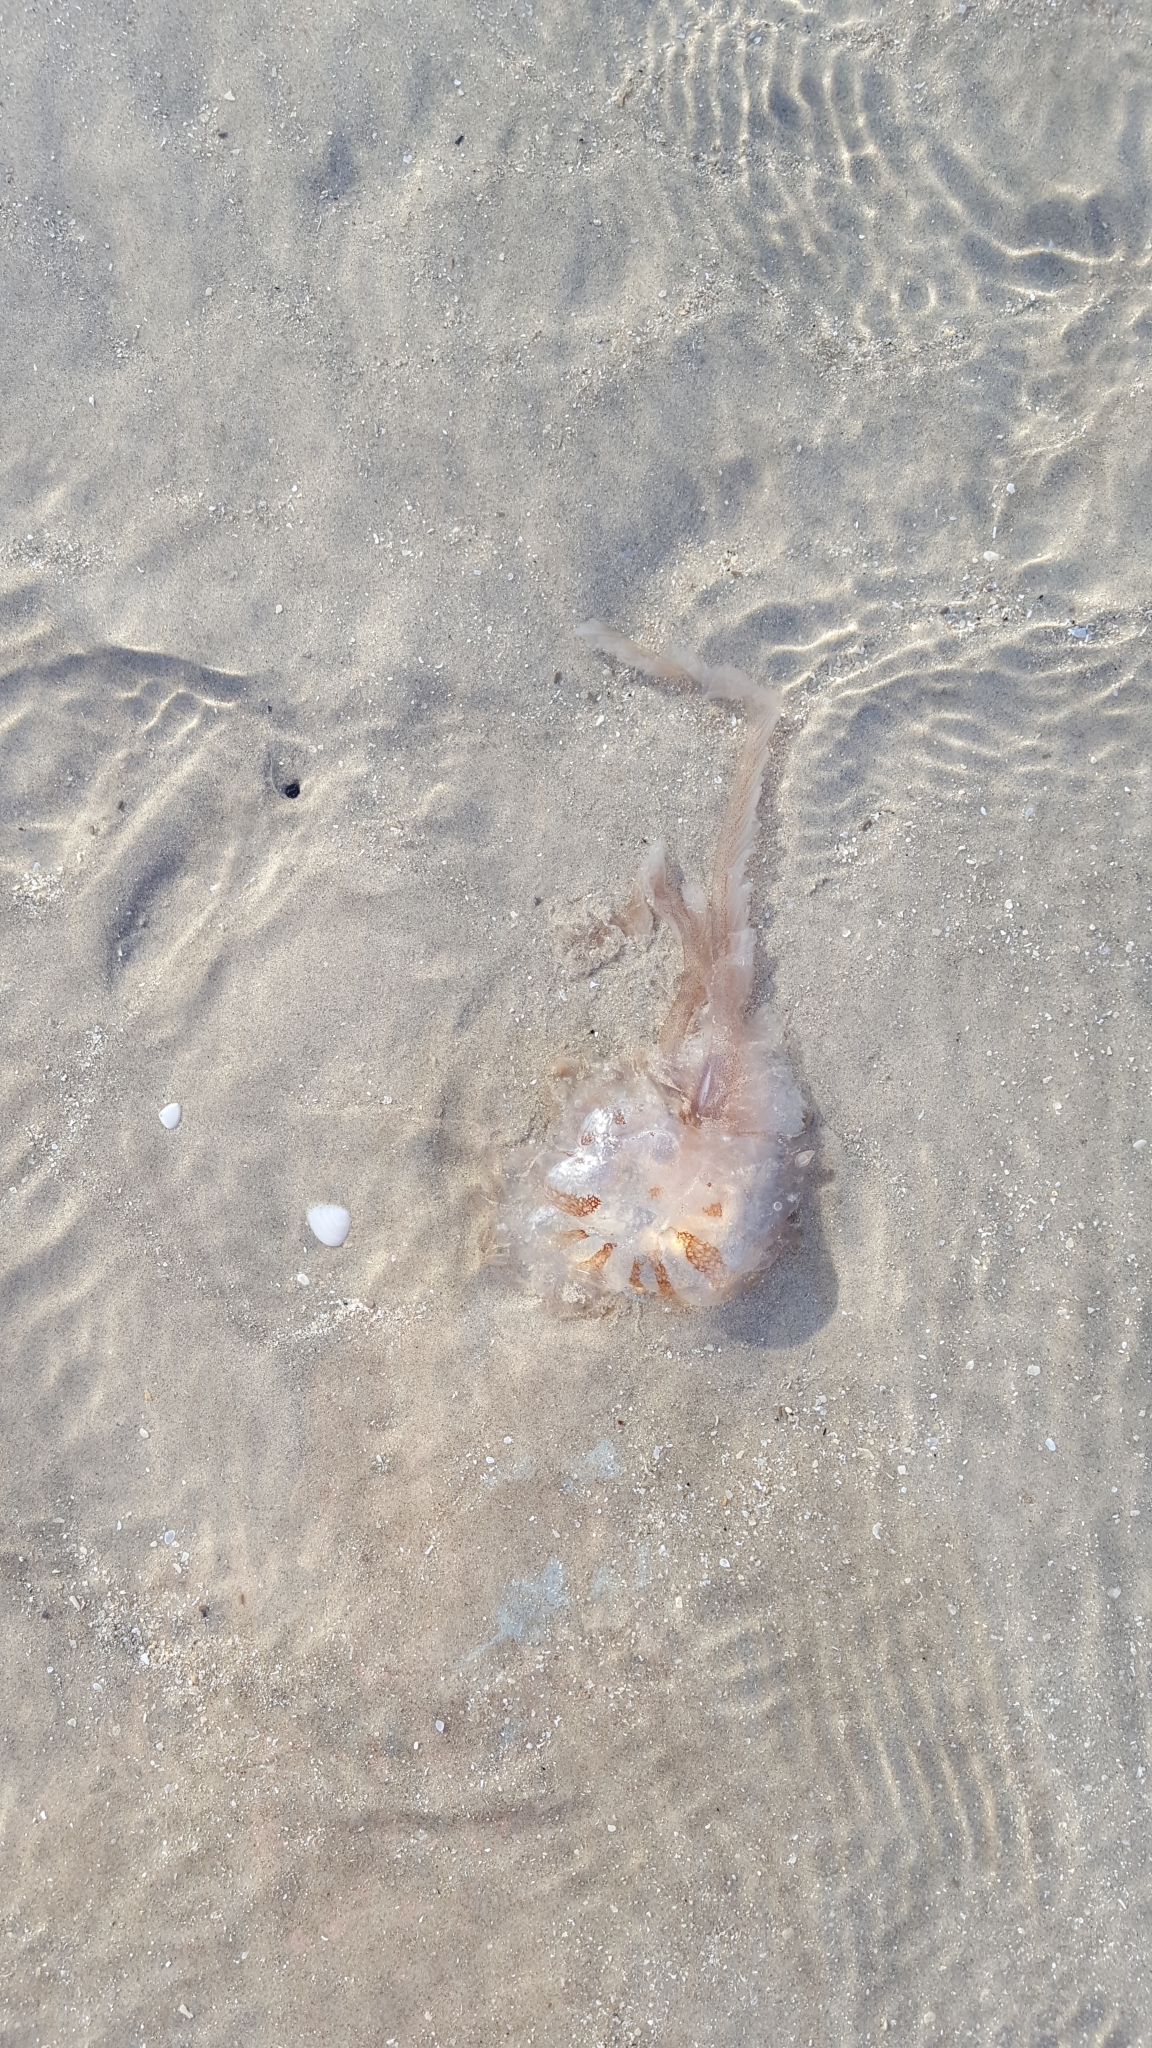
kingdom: Animalia
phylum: Cnidaria
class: Scyphozoa
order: Semaeostomeae
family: Pelagiidae
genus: Chrysaora
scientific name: Chrysaora chesapeakei
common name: Bay nettle
